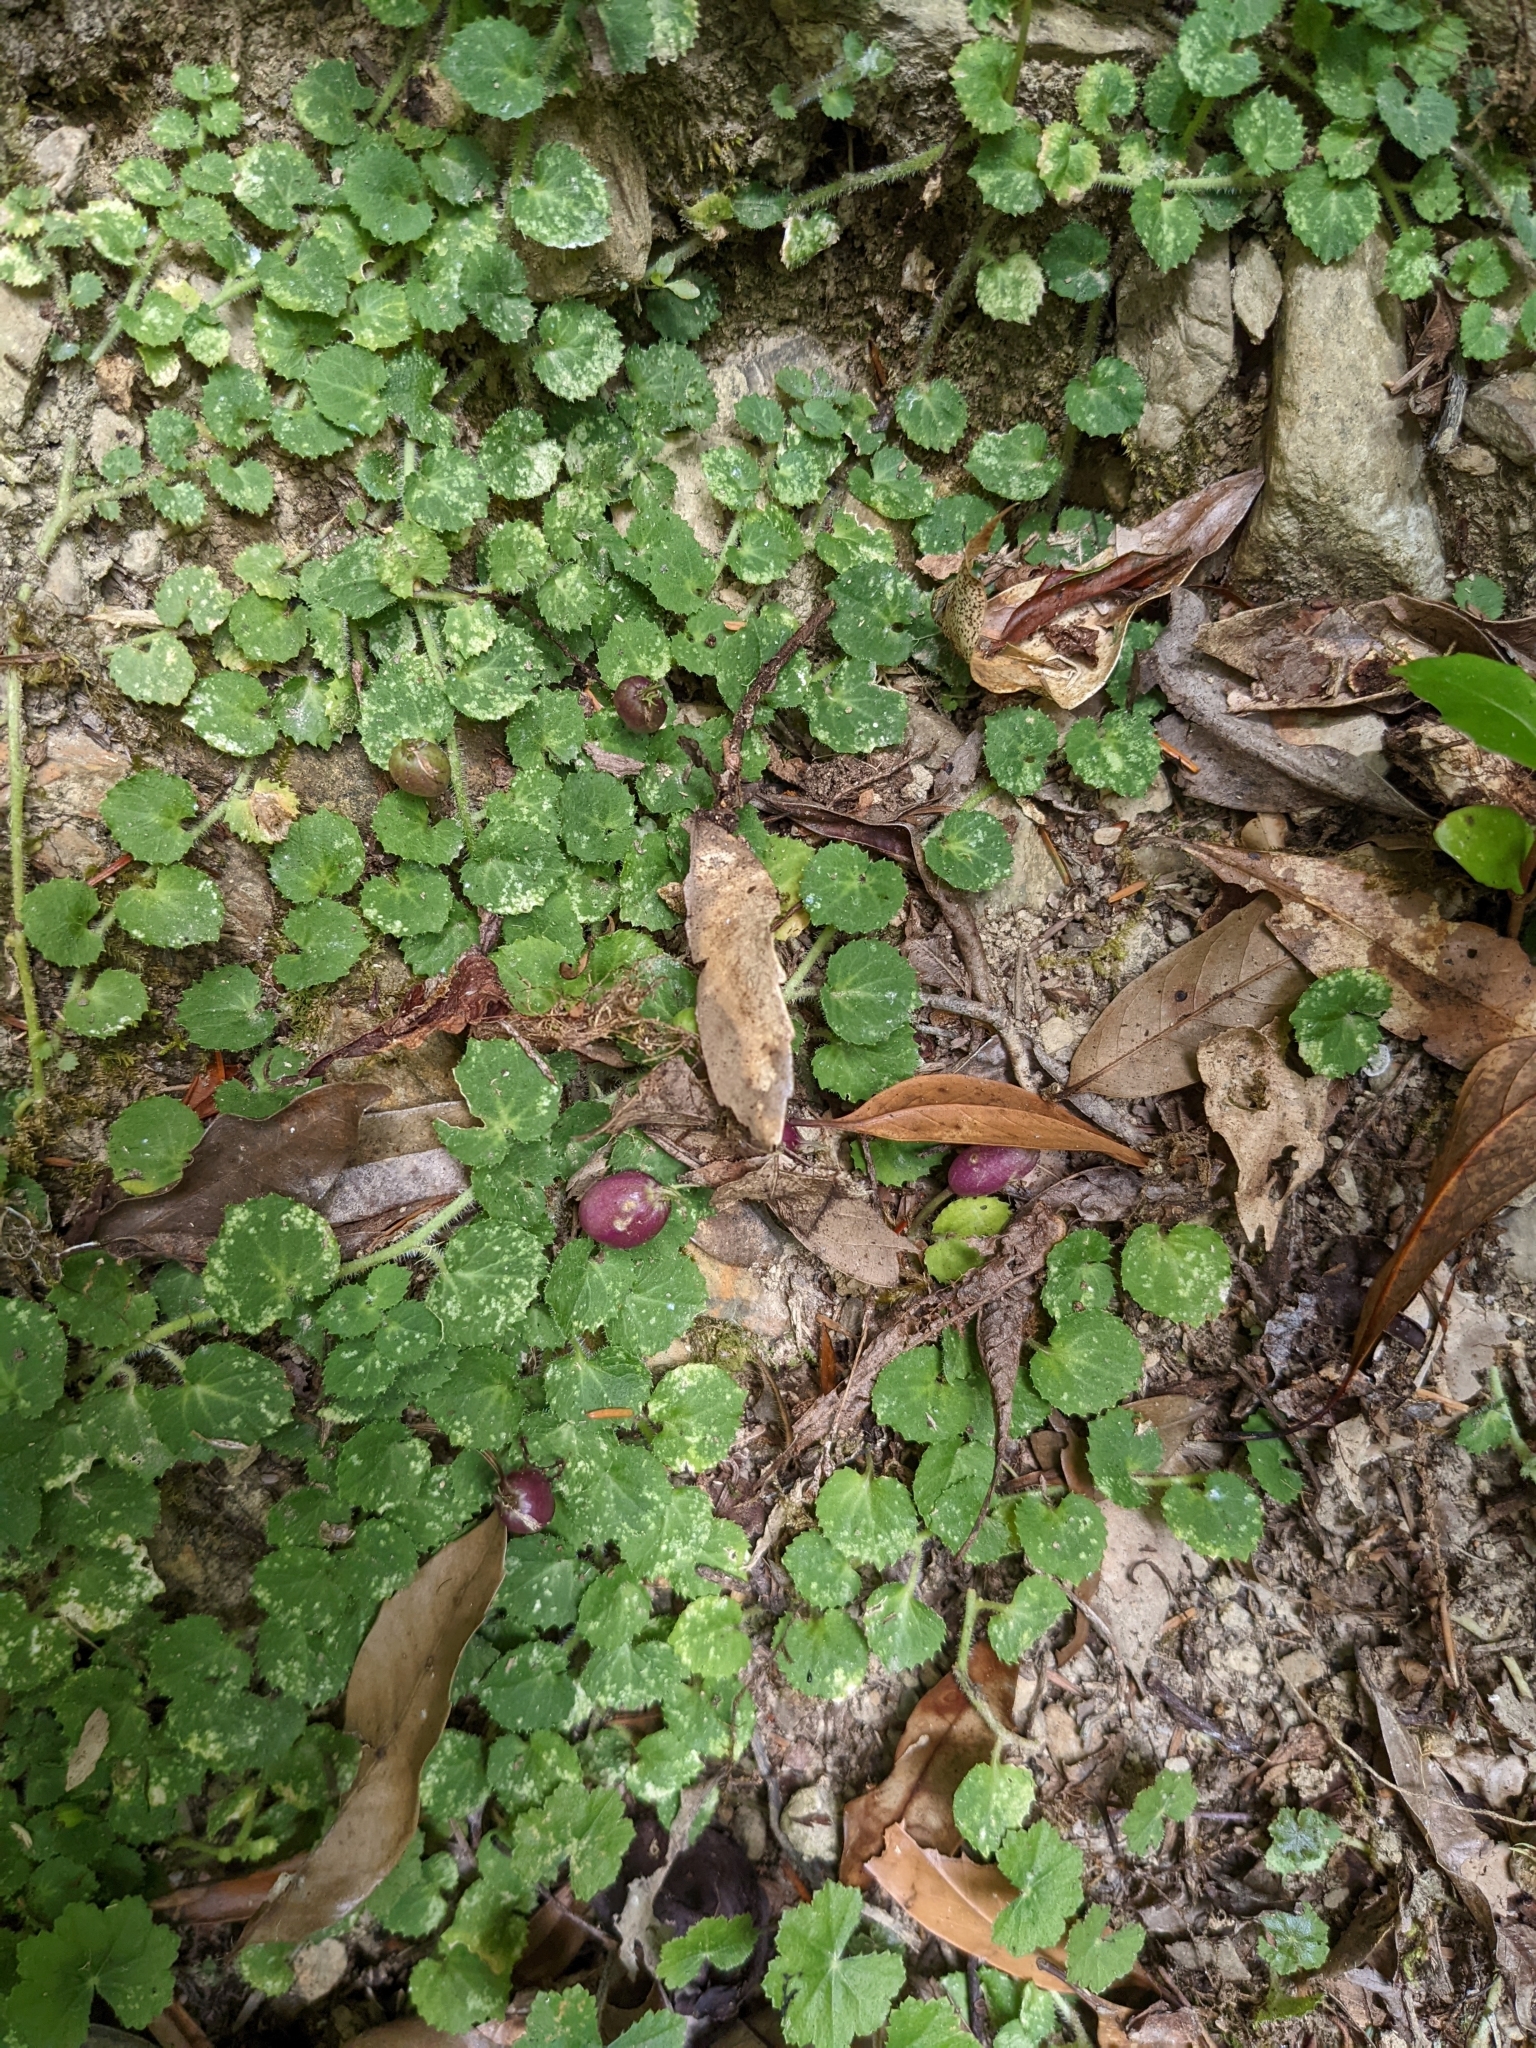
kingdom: Plantae
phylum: Tracheophyta
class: Magnoliopsida
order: Asterales
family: Campanulaceae
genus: Lobelia
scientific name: Lobelia nummularia
